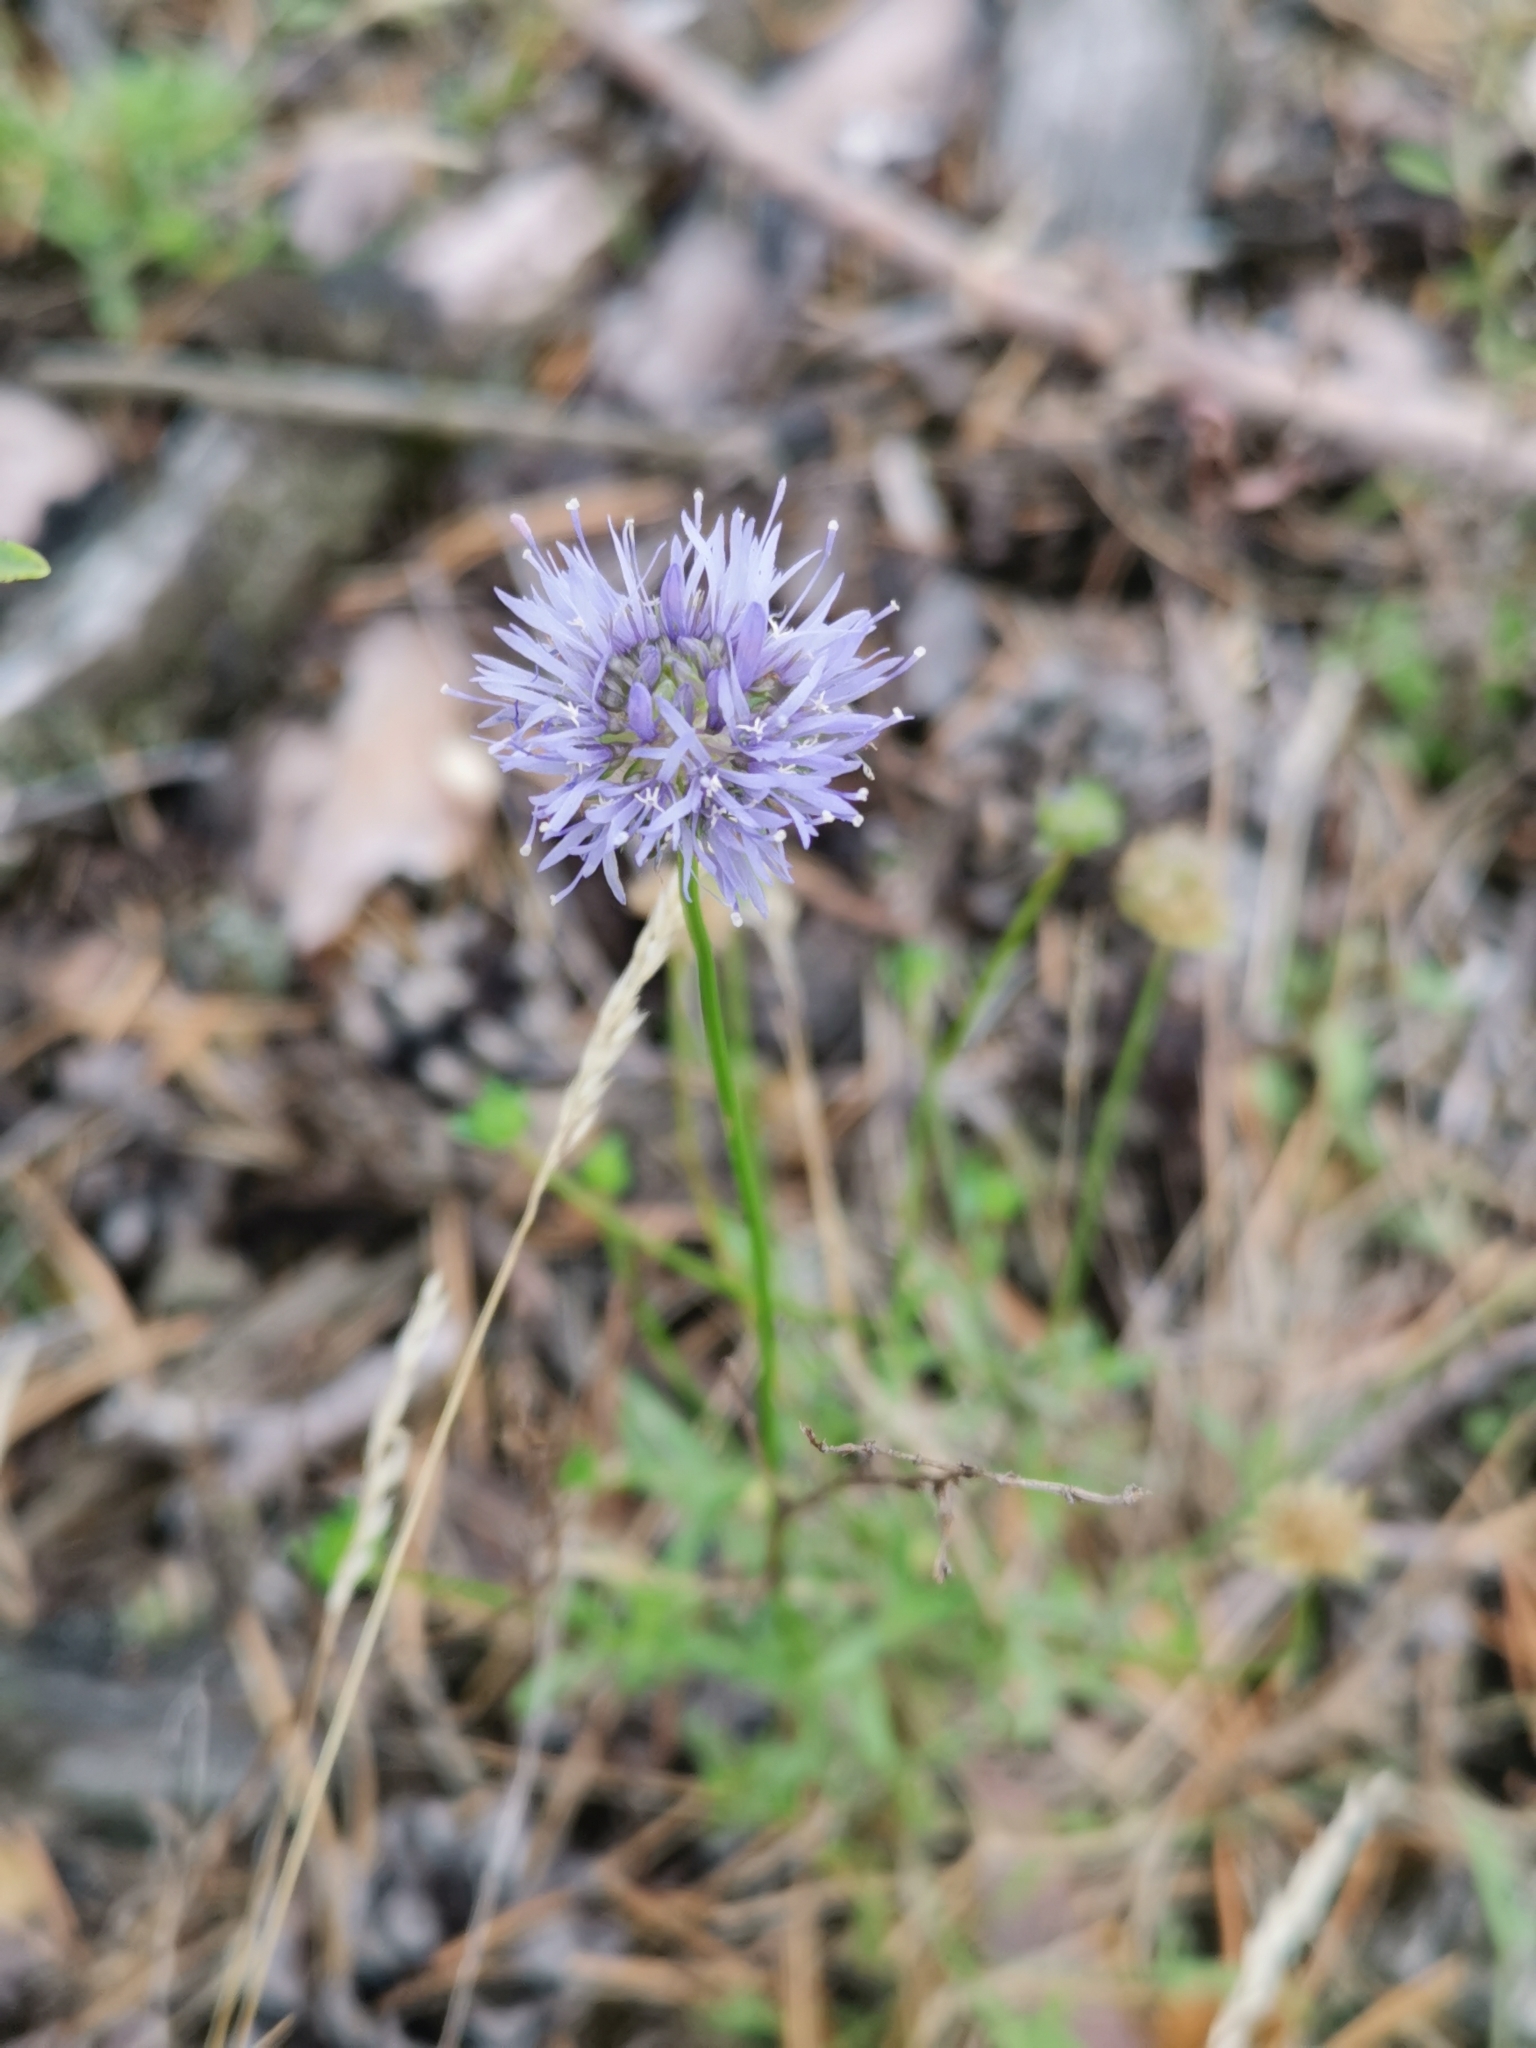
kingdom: Plantae
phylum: Tracheophyta
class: Magnoliopsida
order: Asterales
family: Campanulaceae
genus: Jasione
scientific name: Jasione montana
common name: Sheep's-bit
